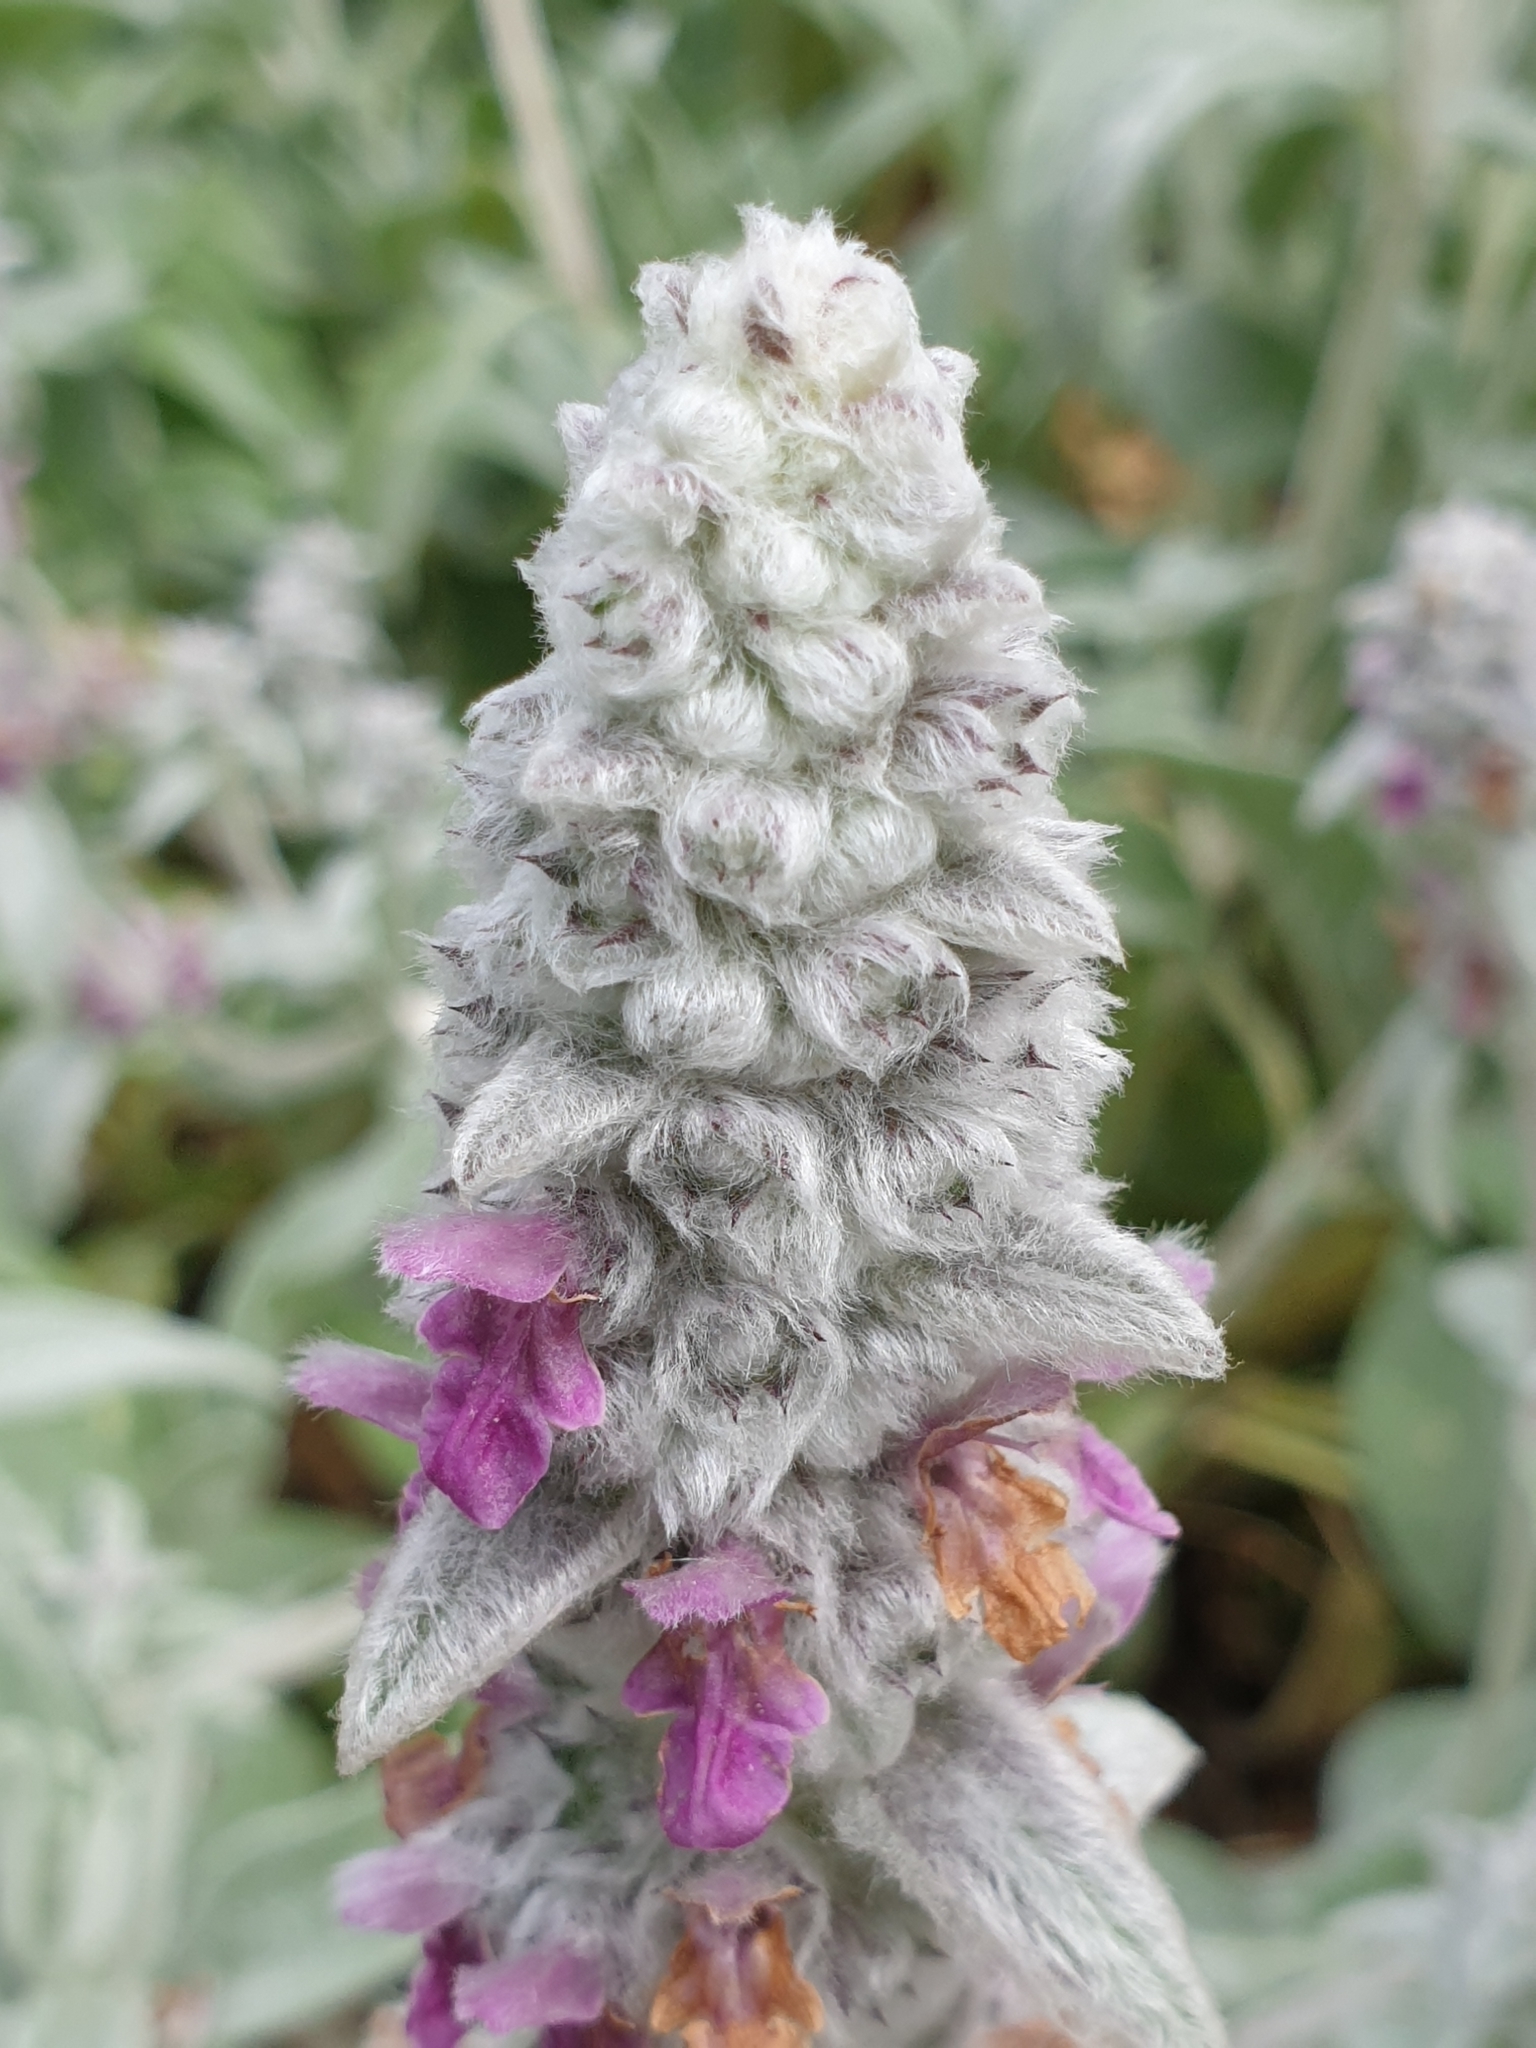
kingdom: Plantae
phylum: Tracheophyta
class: Magnoliopsida
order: Lamiales
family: Lamiaceae
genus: Stachys
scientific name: Stachys byzantina
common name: Lamb's-ear
